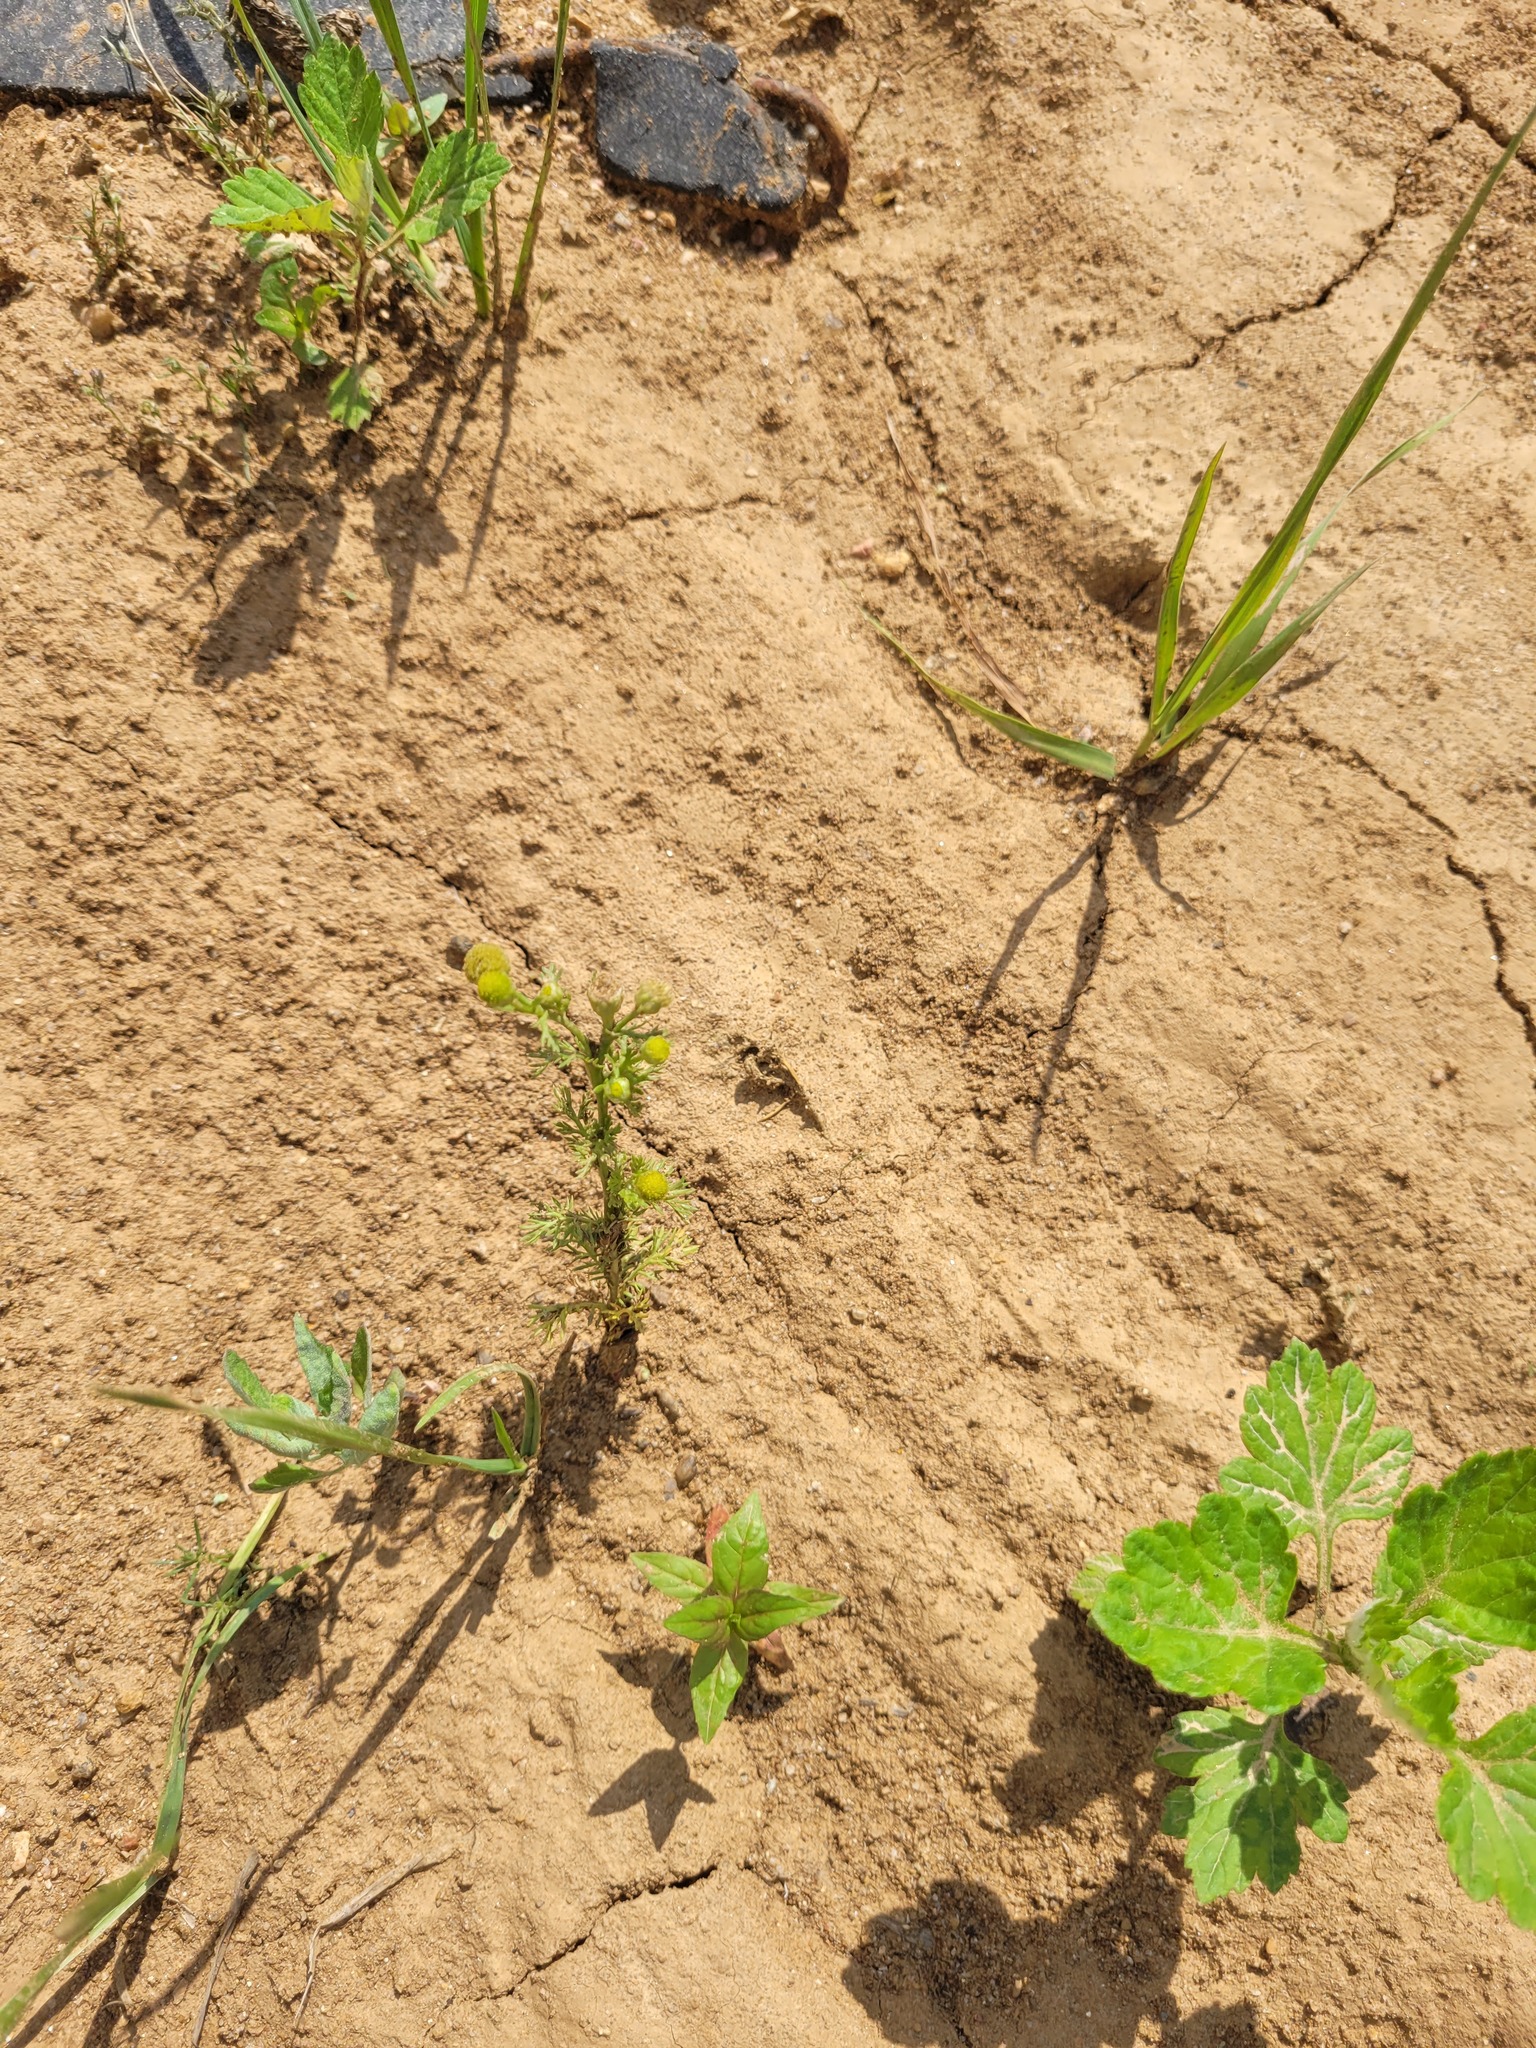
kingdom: Plantae
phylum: Tracheophyta
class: Magnoliopsida
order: Asterales
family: Asteraceae
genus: Matricaria
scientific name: Matricaria discoidea
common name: Disc mayweed
